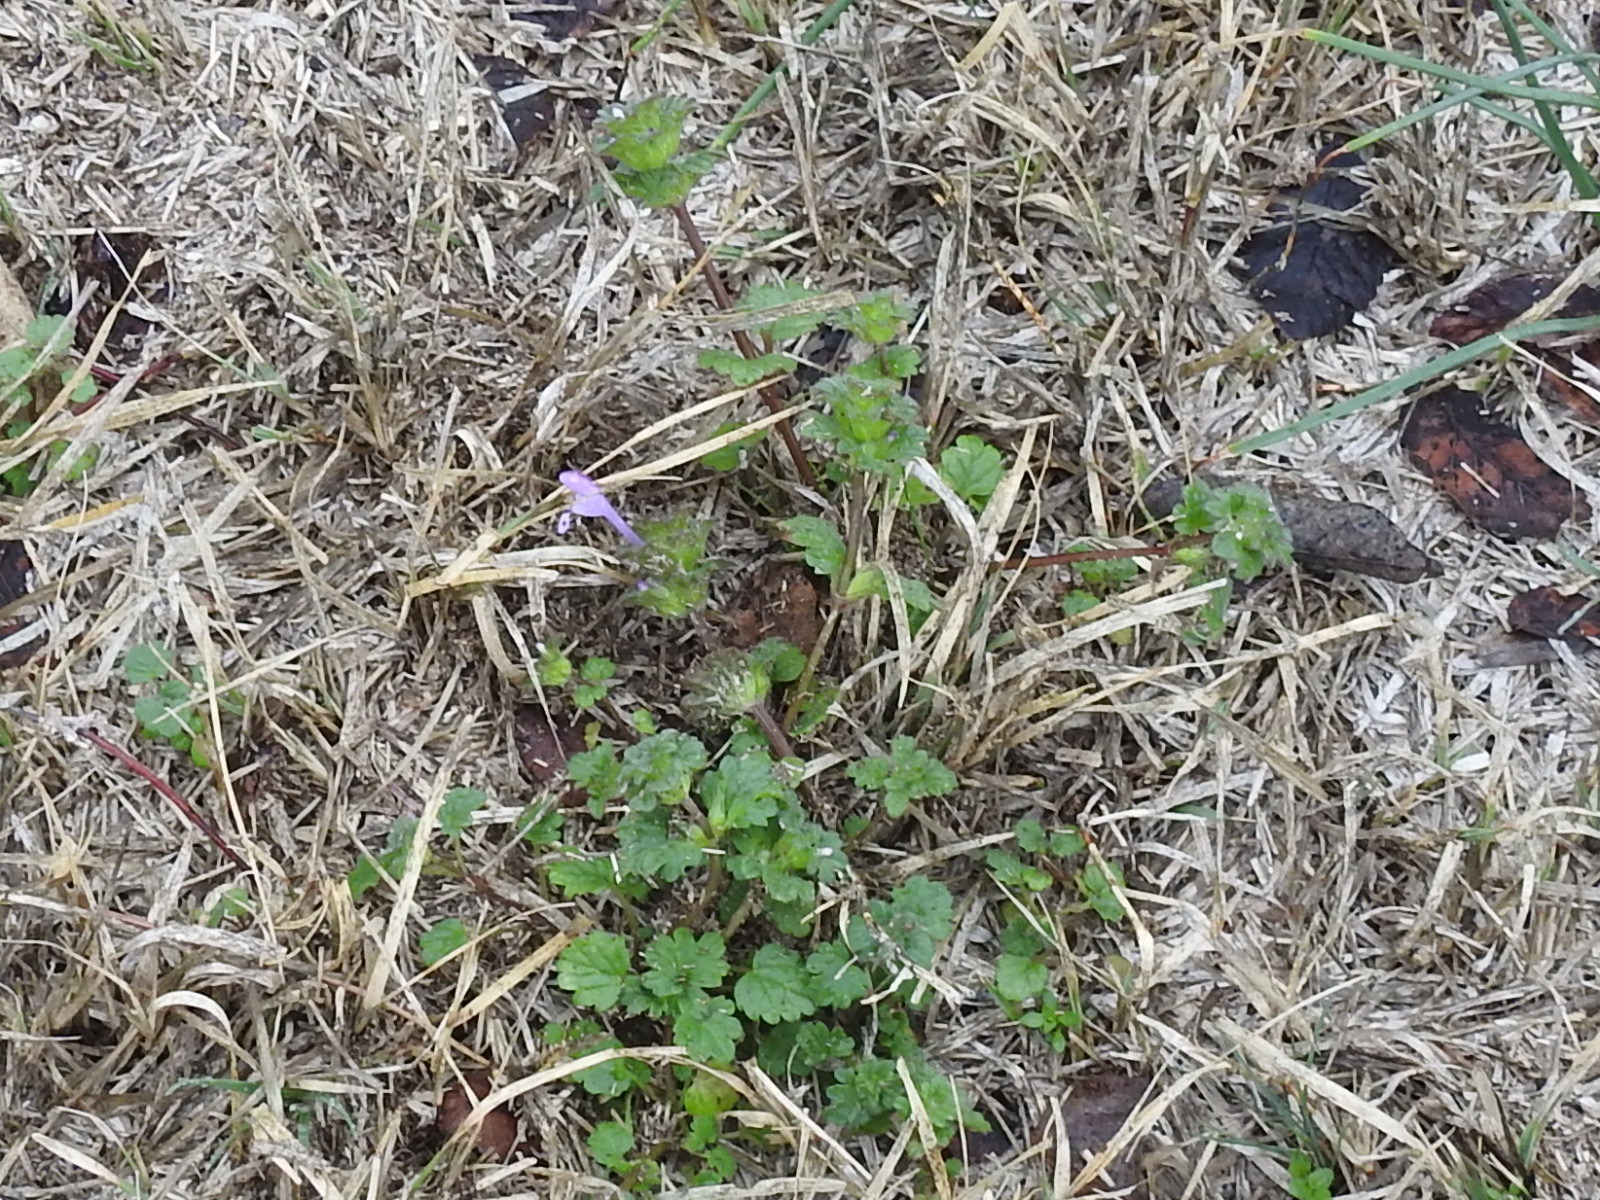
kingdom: Plantae
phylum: Tracheophyta
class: Magnoliopsida
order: Lamiales
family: Lamiaceae
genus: Lamium
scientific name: Lamium amplexicaule
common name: Henbit dead-nettle
